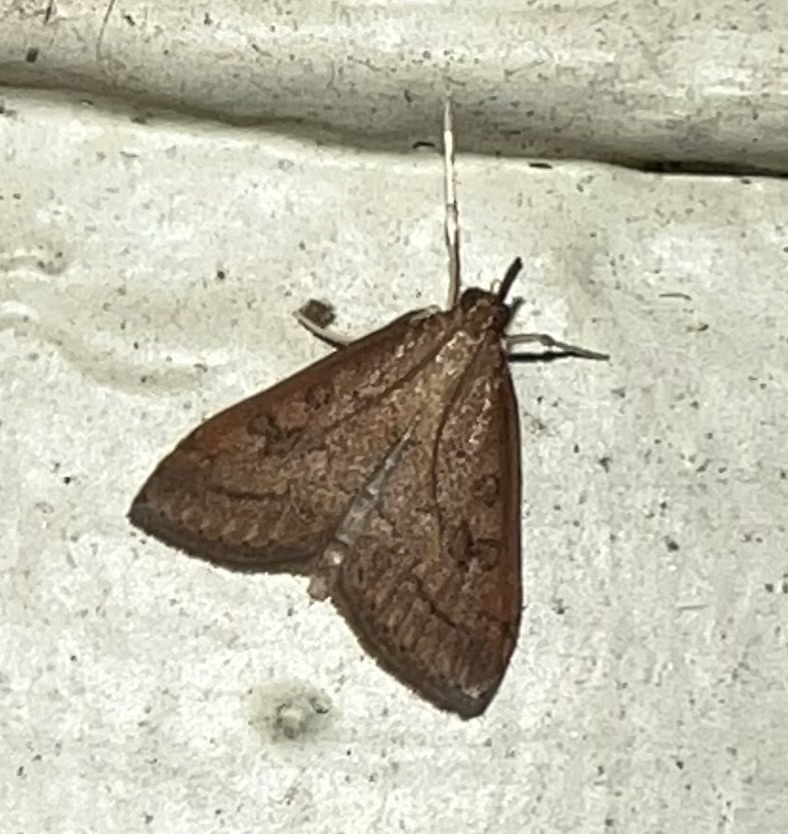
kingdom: Animalia
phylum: Arthropoda
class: Insecta
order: Lepidoptera
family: Crambidae
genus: Udea
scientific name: Udea rubigalis
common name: Celery leaftier moth
